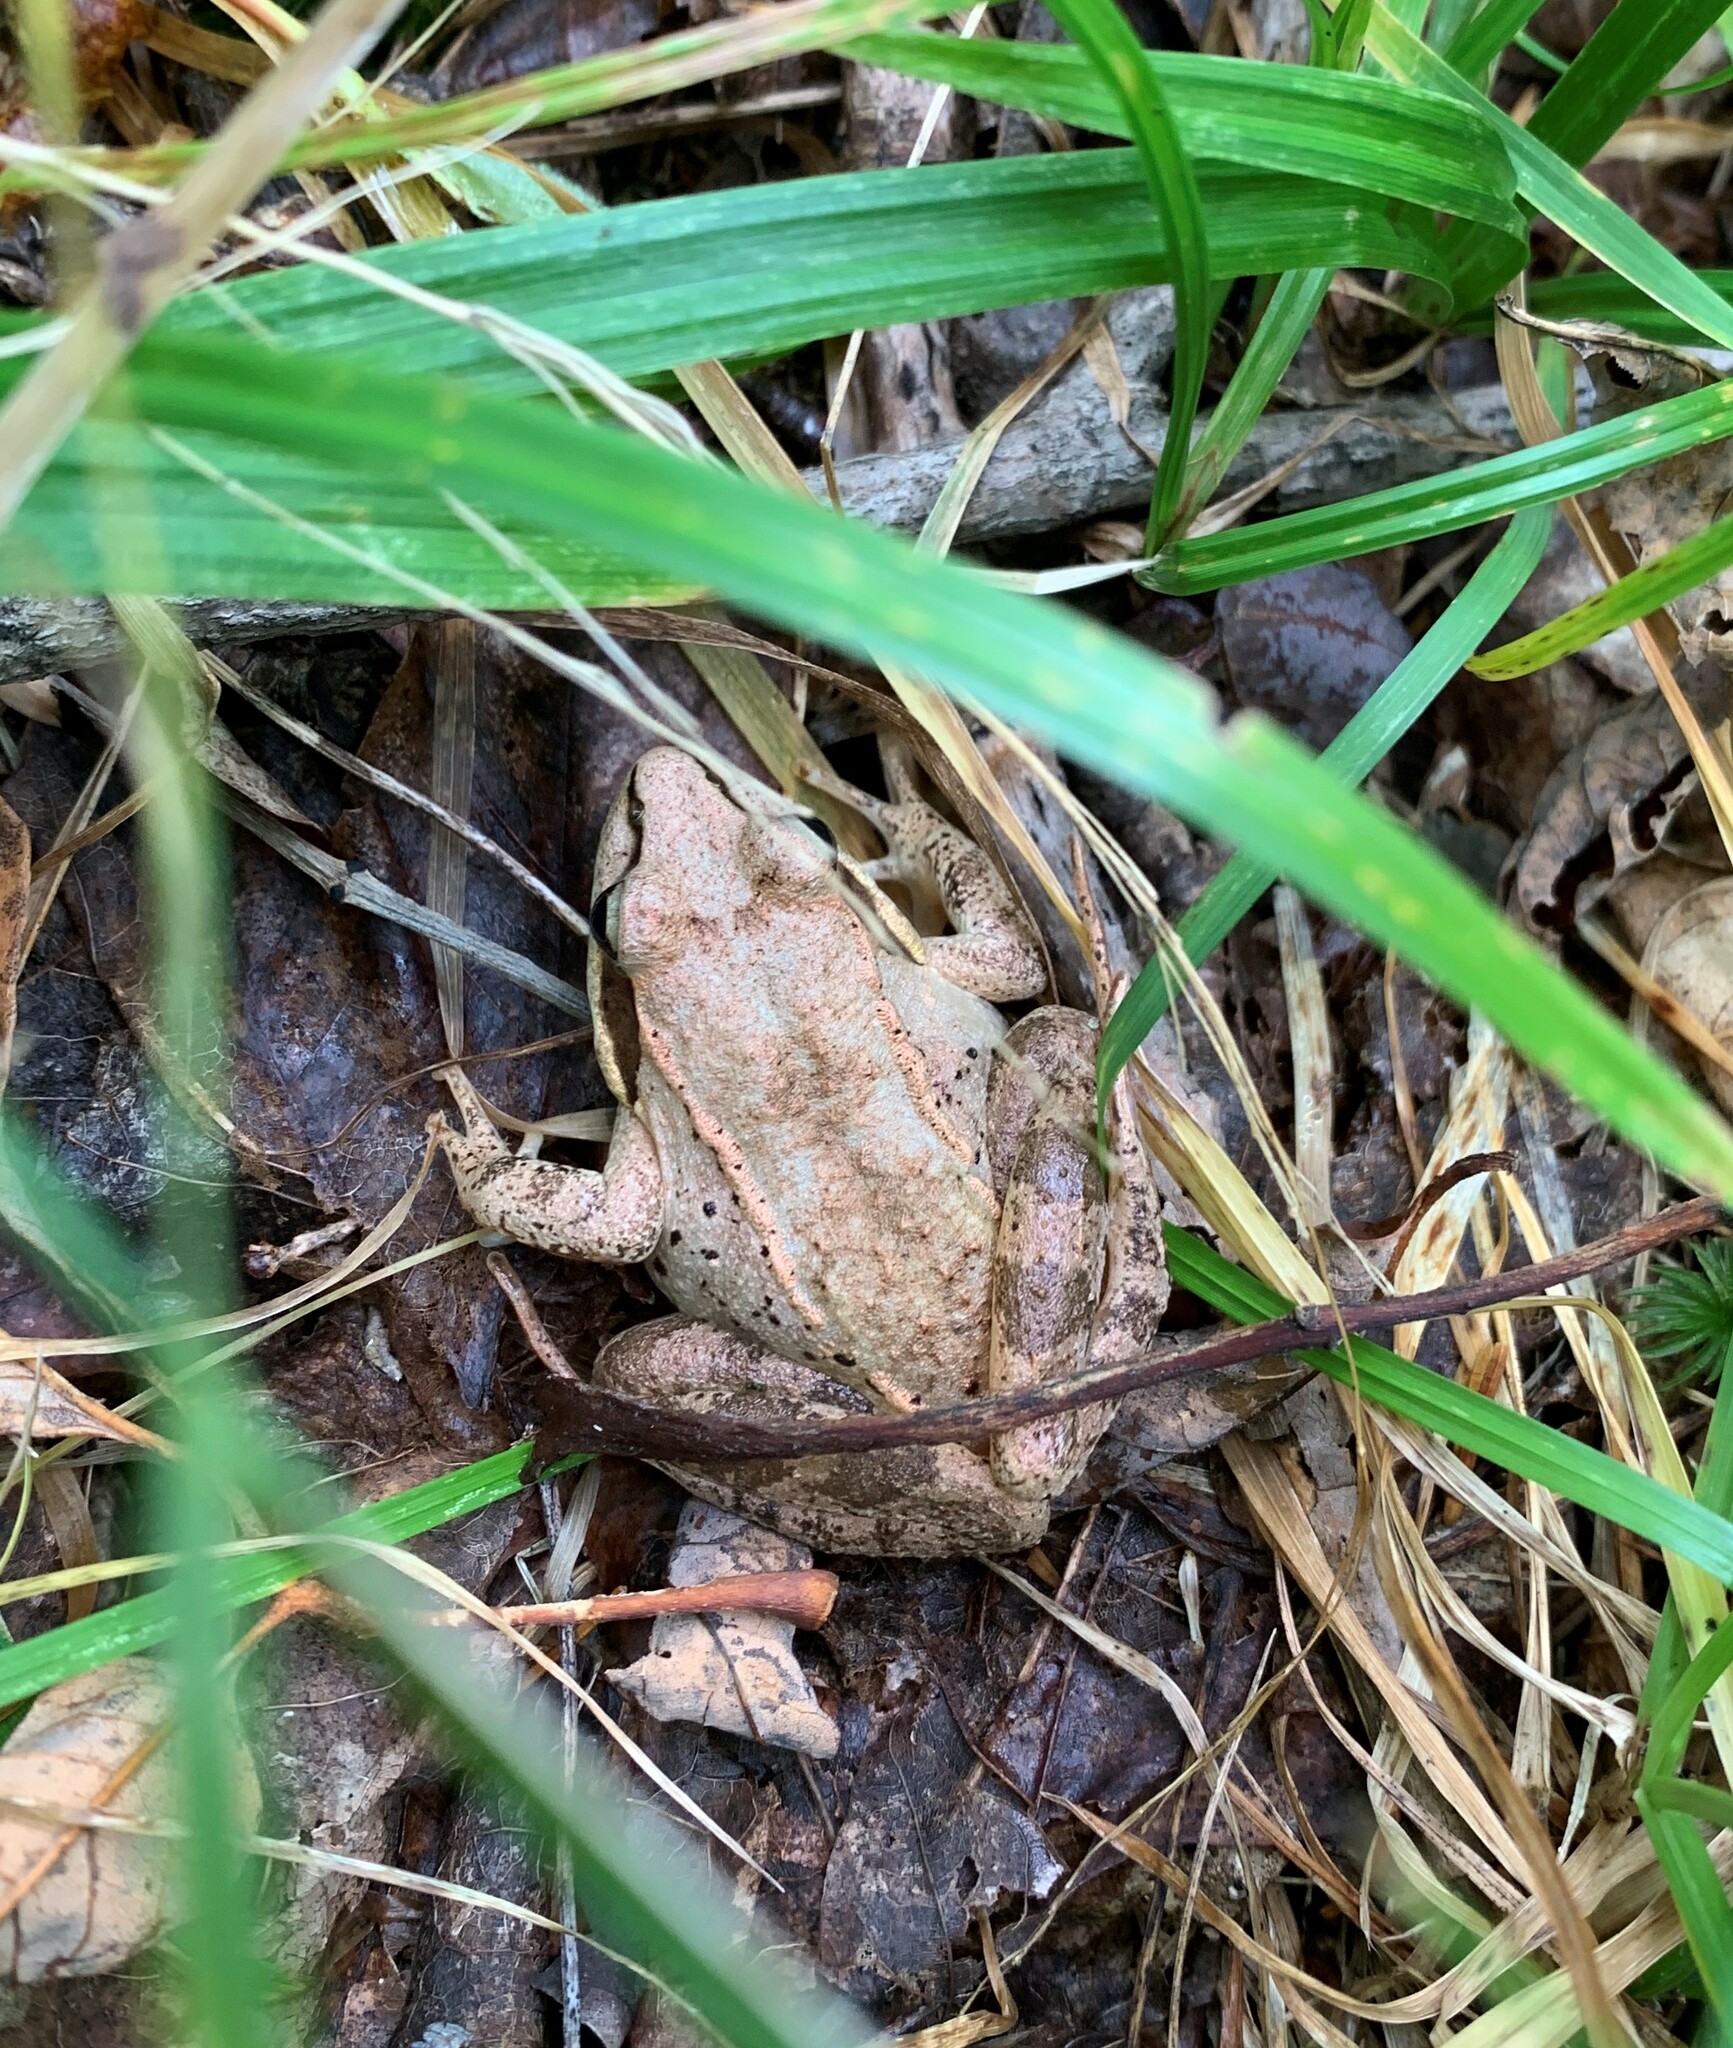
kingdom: Animalia
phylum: Chordata
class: Amphibia
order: Anura
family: Ranidae
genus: Lithobates
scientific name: Lithobates sylvaticus
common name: Wood frog
